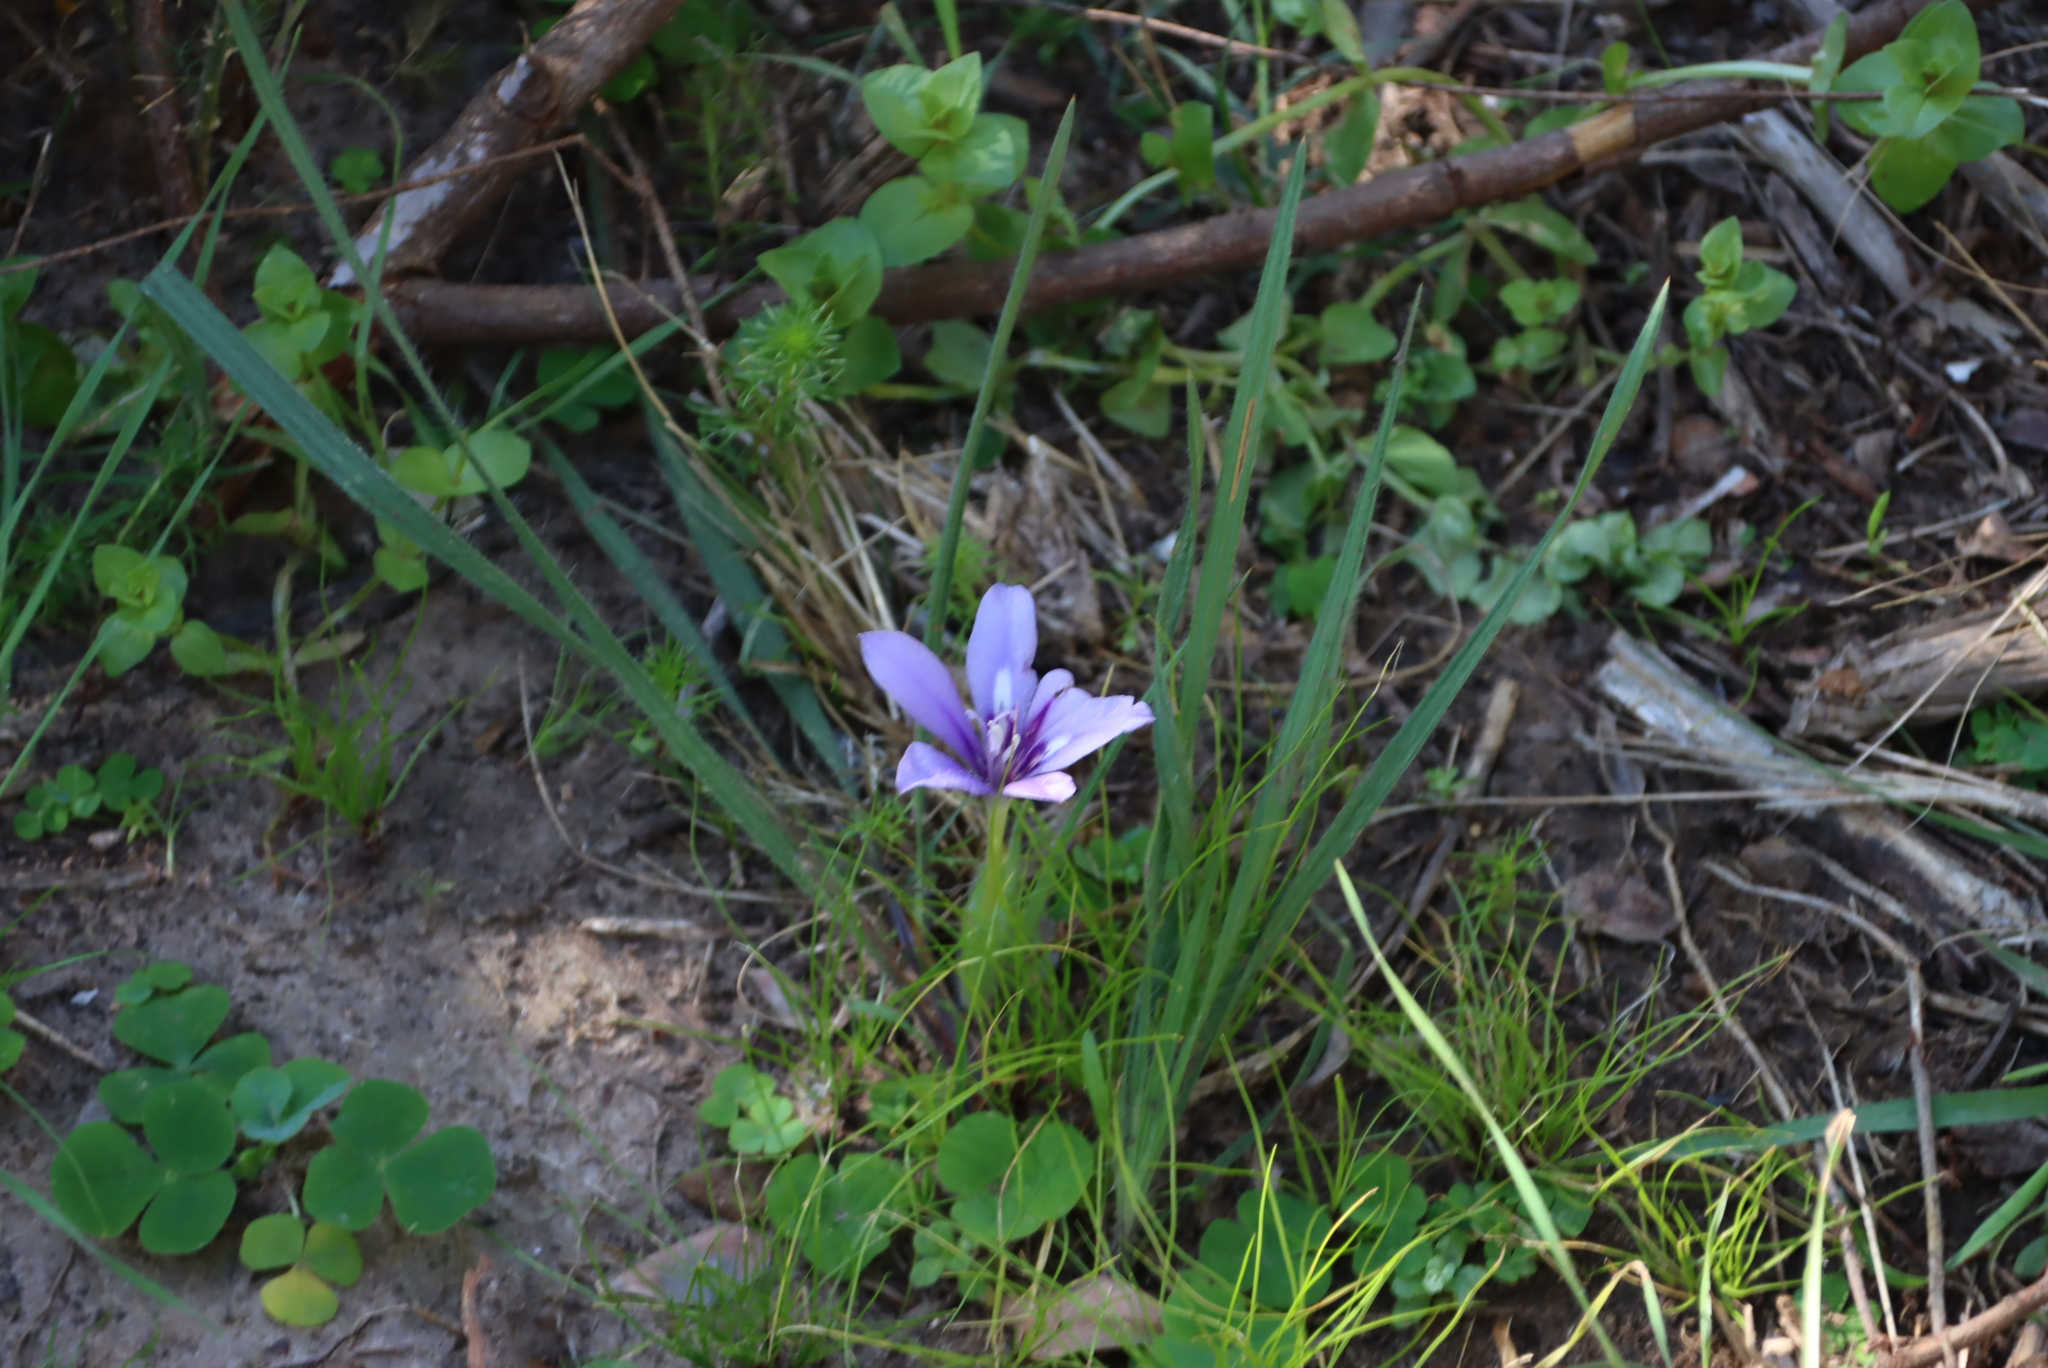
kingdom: Plantae
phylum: Tracheophyta
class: Liliopsida
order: Asparagales
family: Iridaceae
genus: Babiana
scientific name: Babiana sambucina
